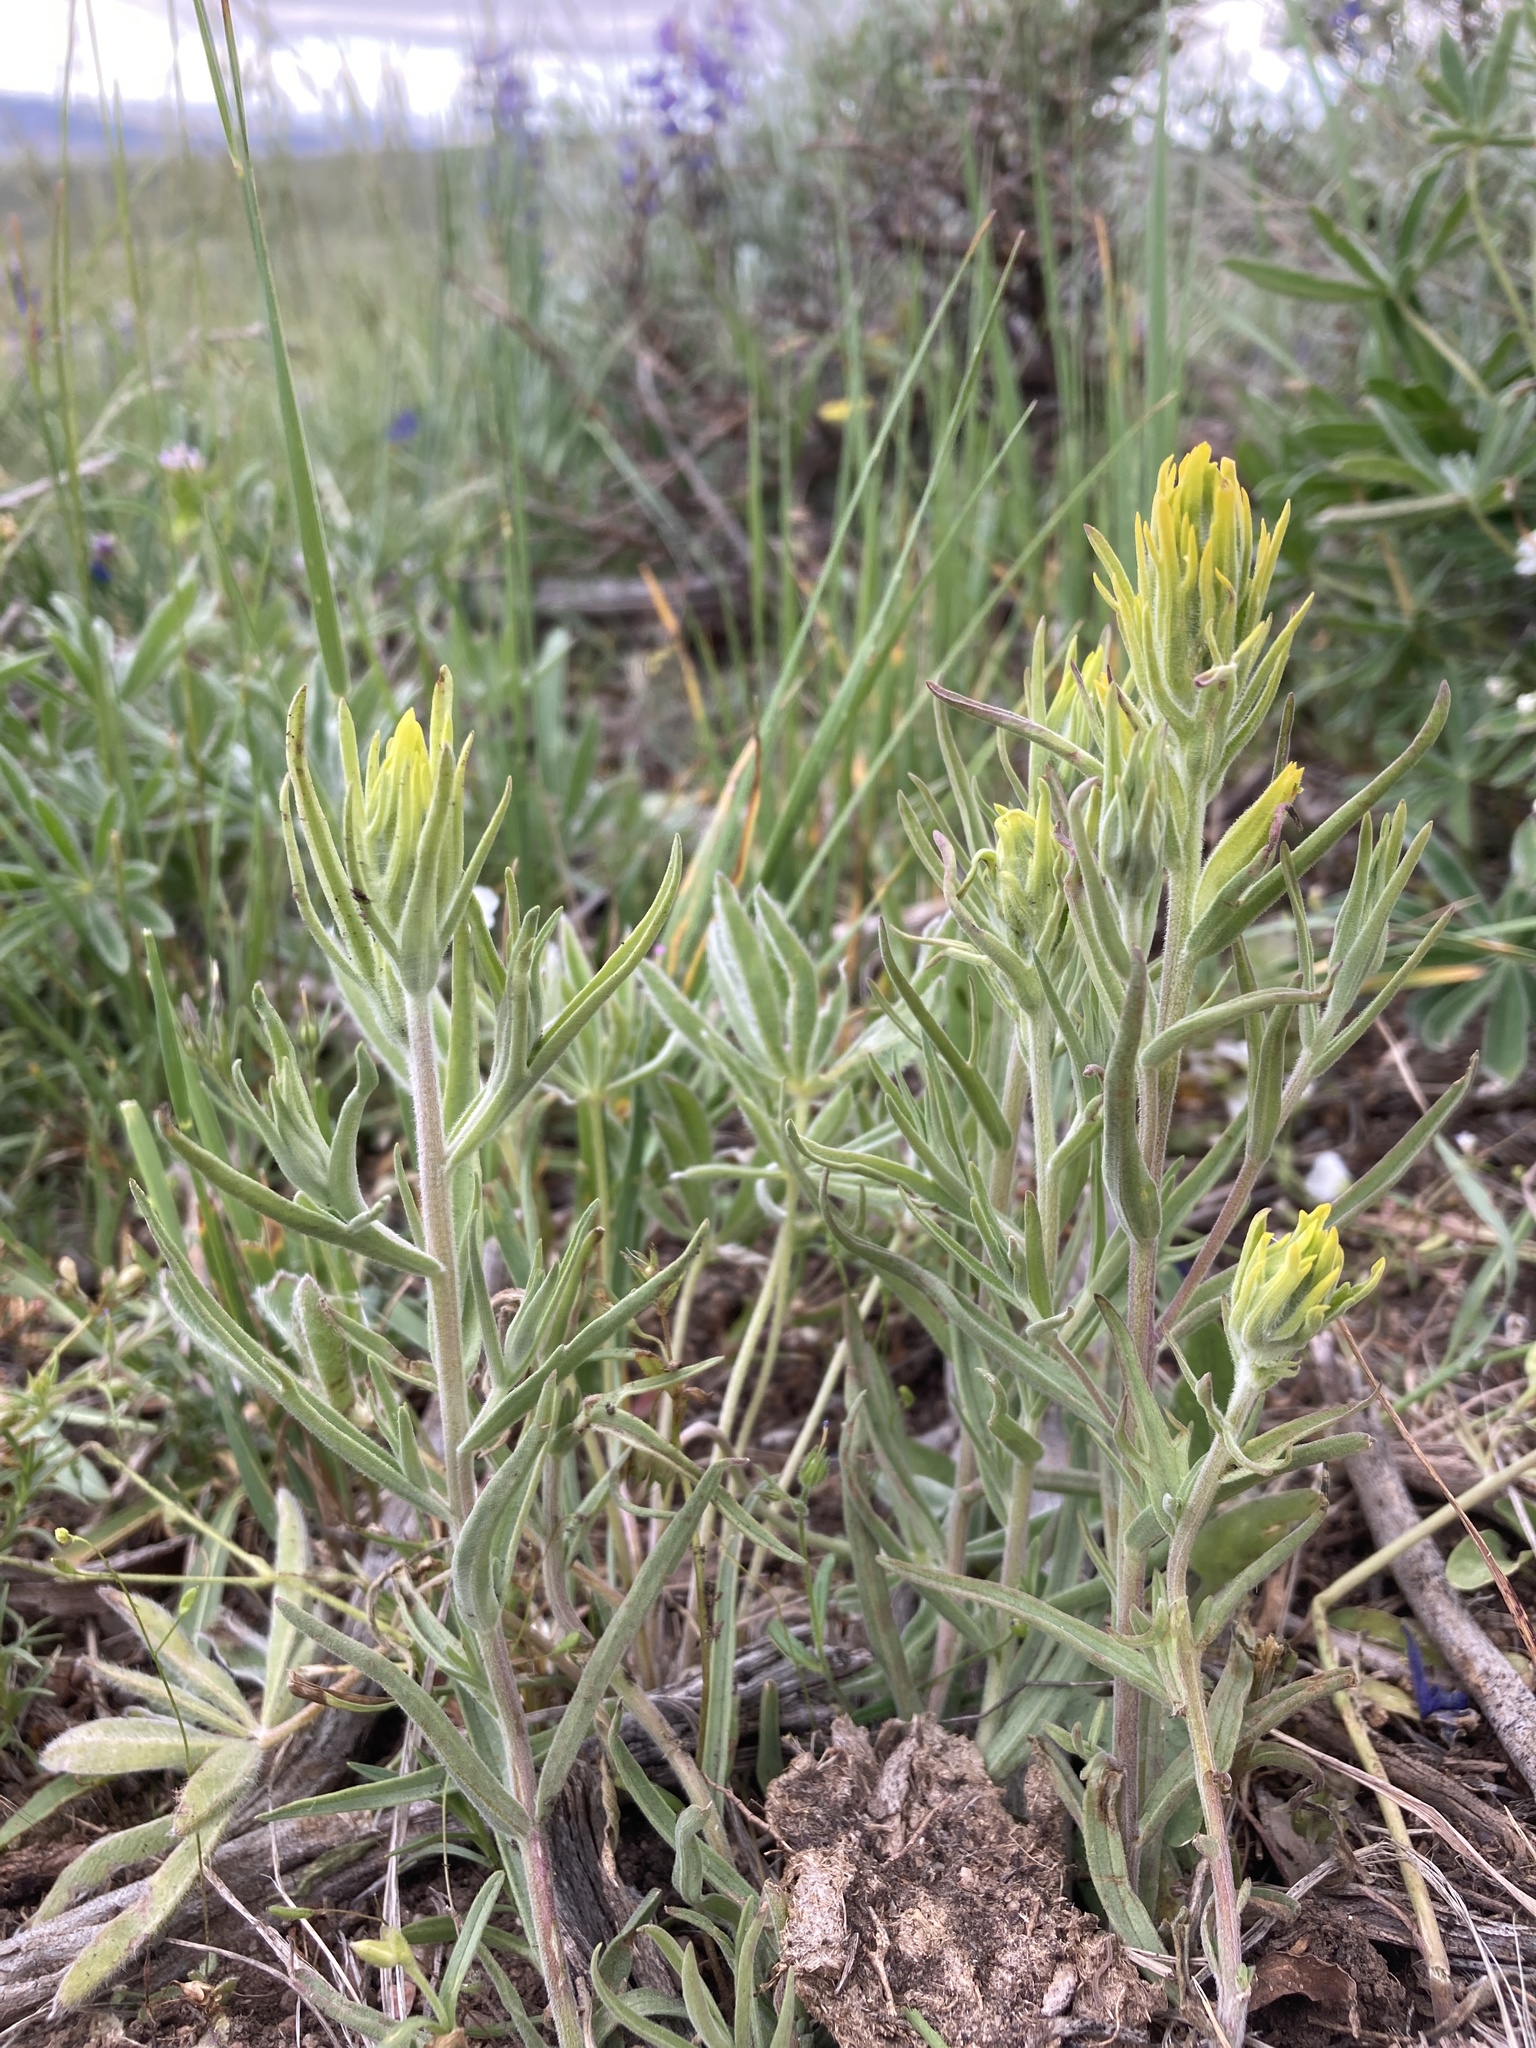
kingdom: Plantae
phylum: Tracheophyta
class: Magnoliopsida
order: Lamiales
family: Orobanchaceae
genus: Castilleja
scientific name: Castilleja flava
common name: Yellow paintbrush
